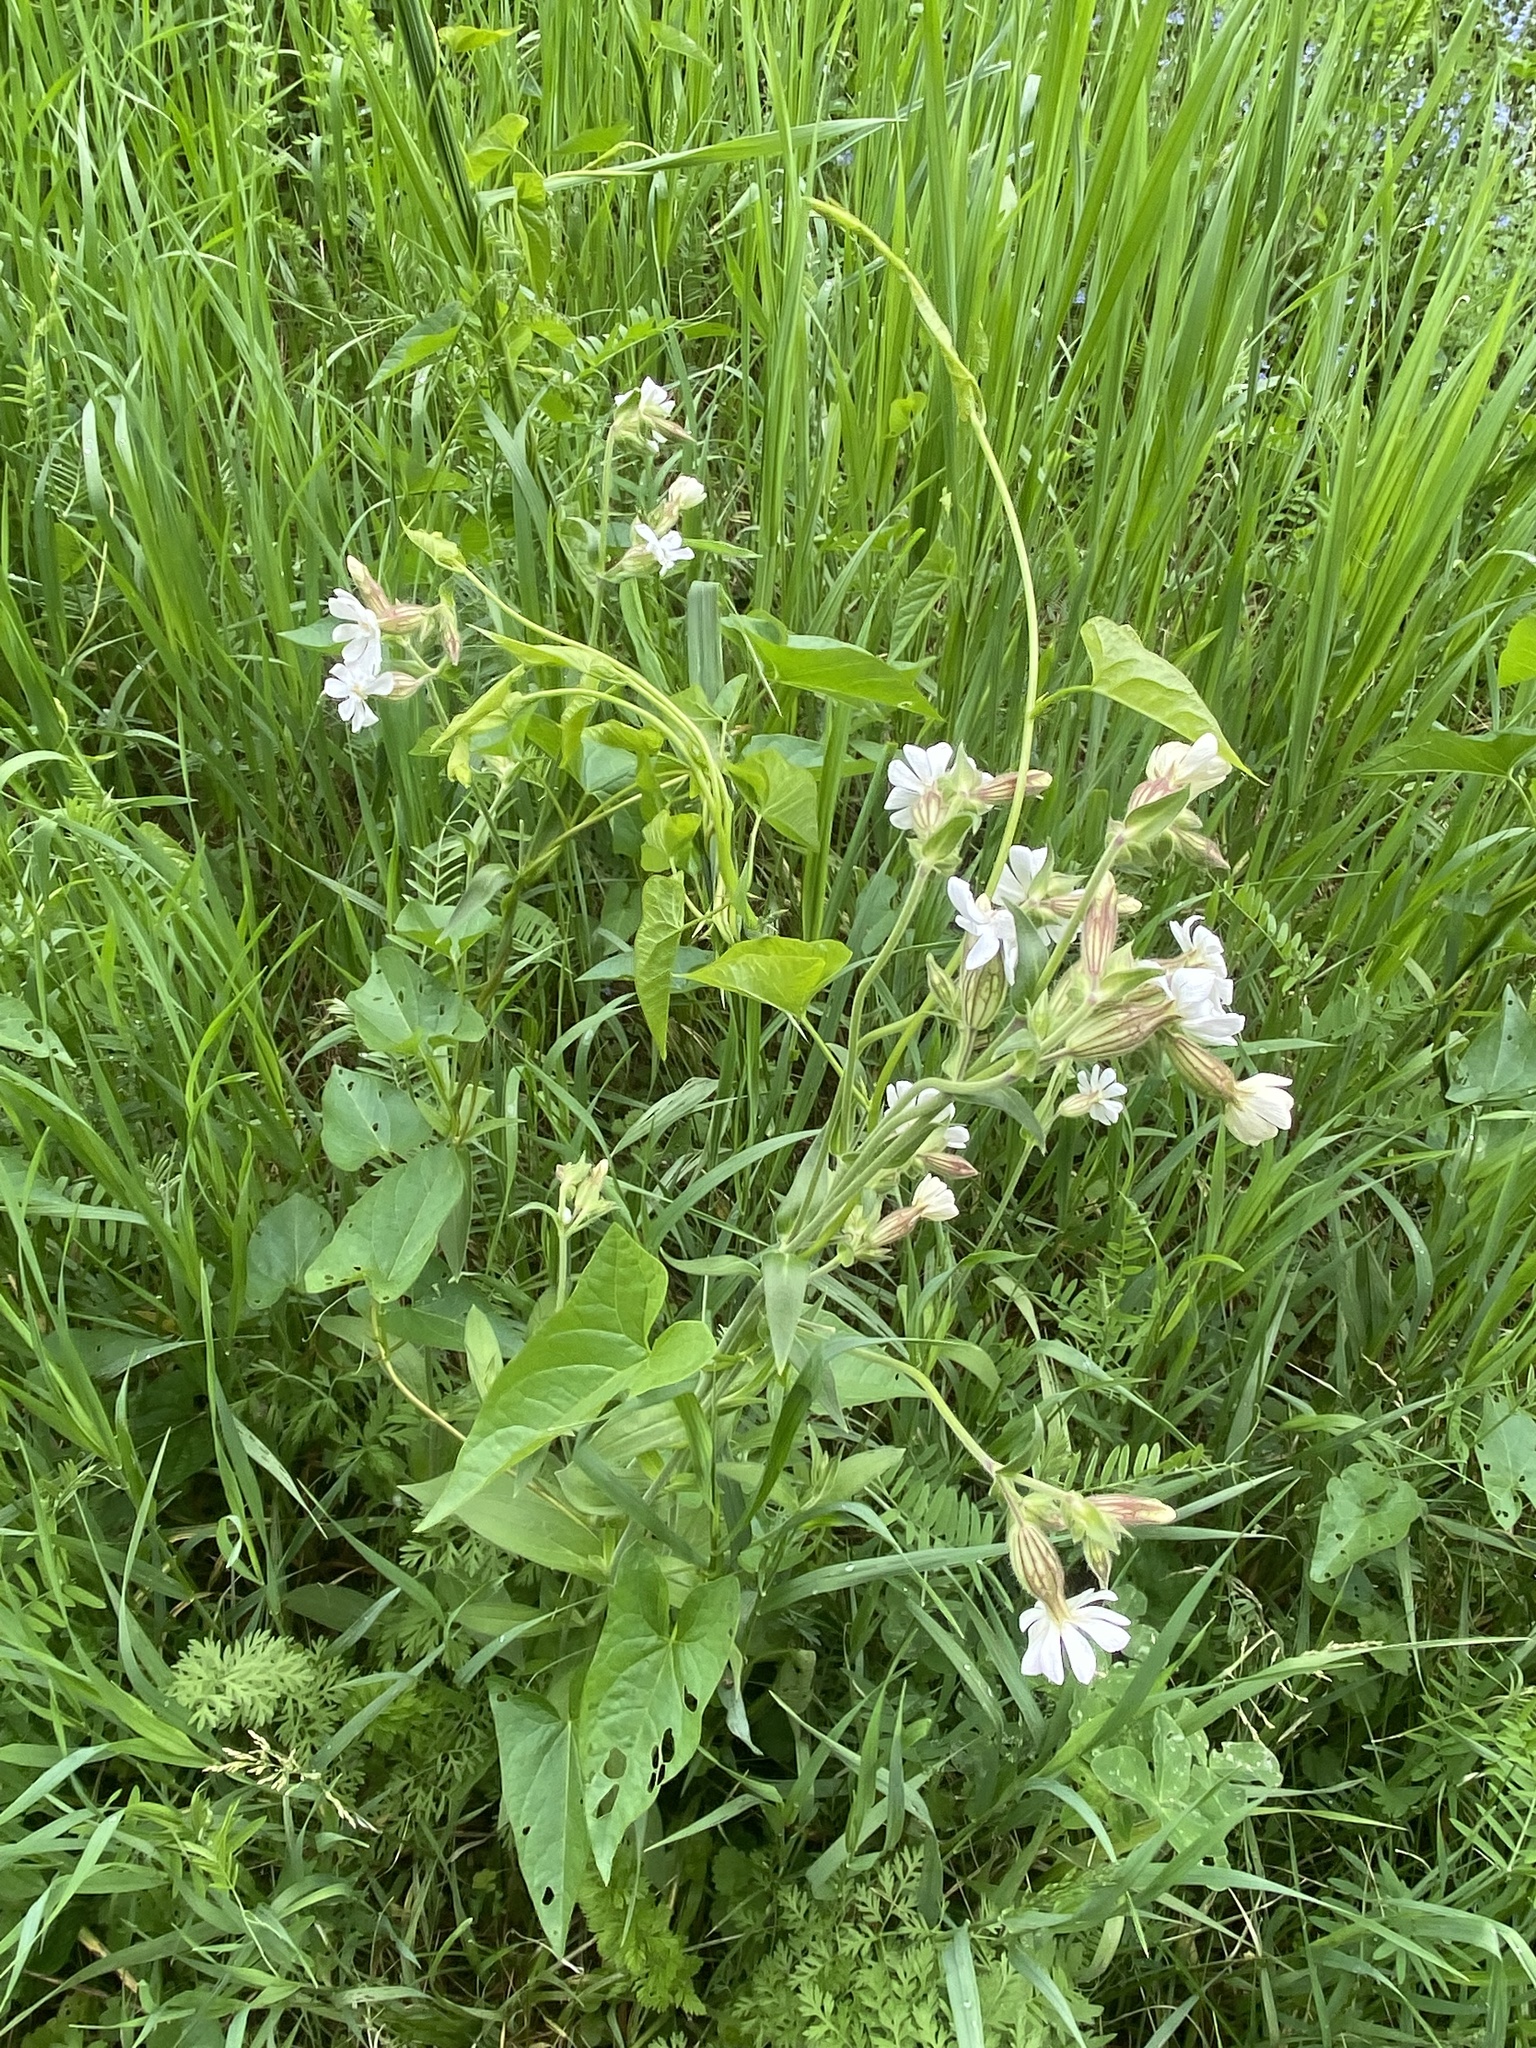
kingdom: Plantae
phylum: Tracheophyta
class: Magnoliopsida
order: Caryophyllales
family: Caryophyllaceae
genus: Silene
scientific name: Silene latifolia
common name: White campion
